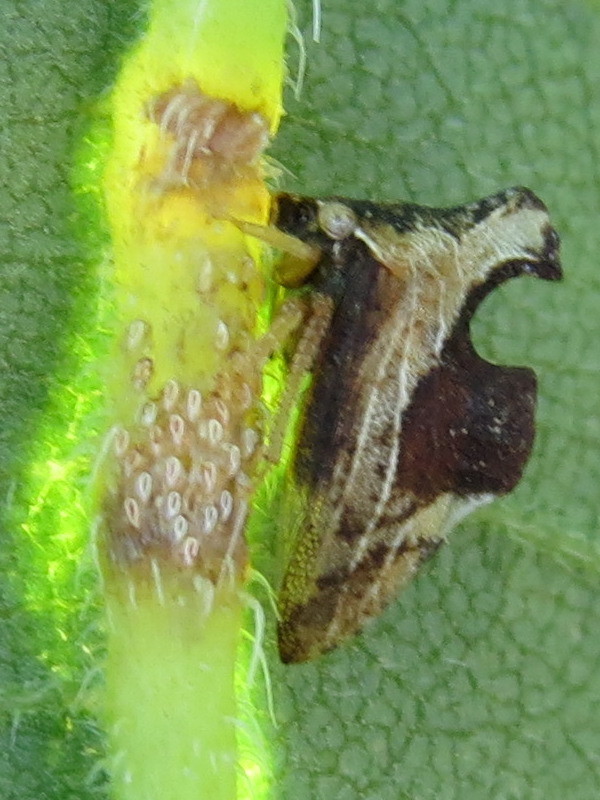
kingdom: Animalia
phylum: Arthropoda
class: Insecta
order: Hemiptera
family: Membracidae
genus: Entylia
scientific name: Entylia carinata
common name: Keeled treehopper
